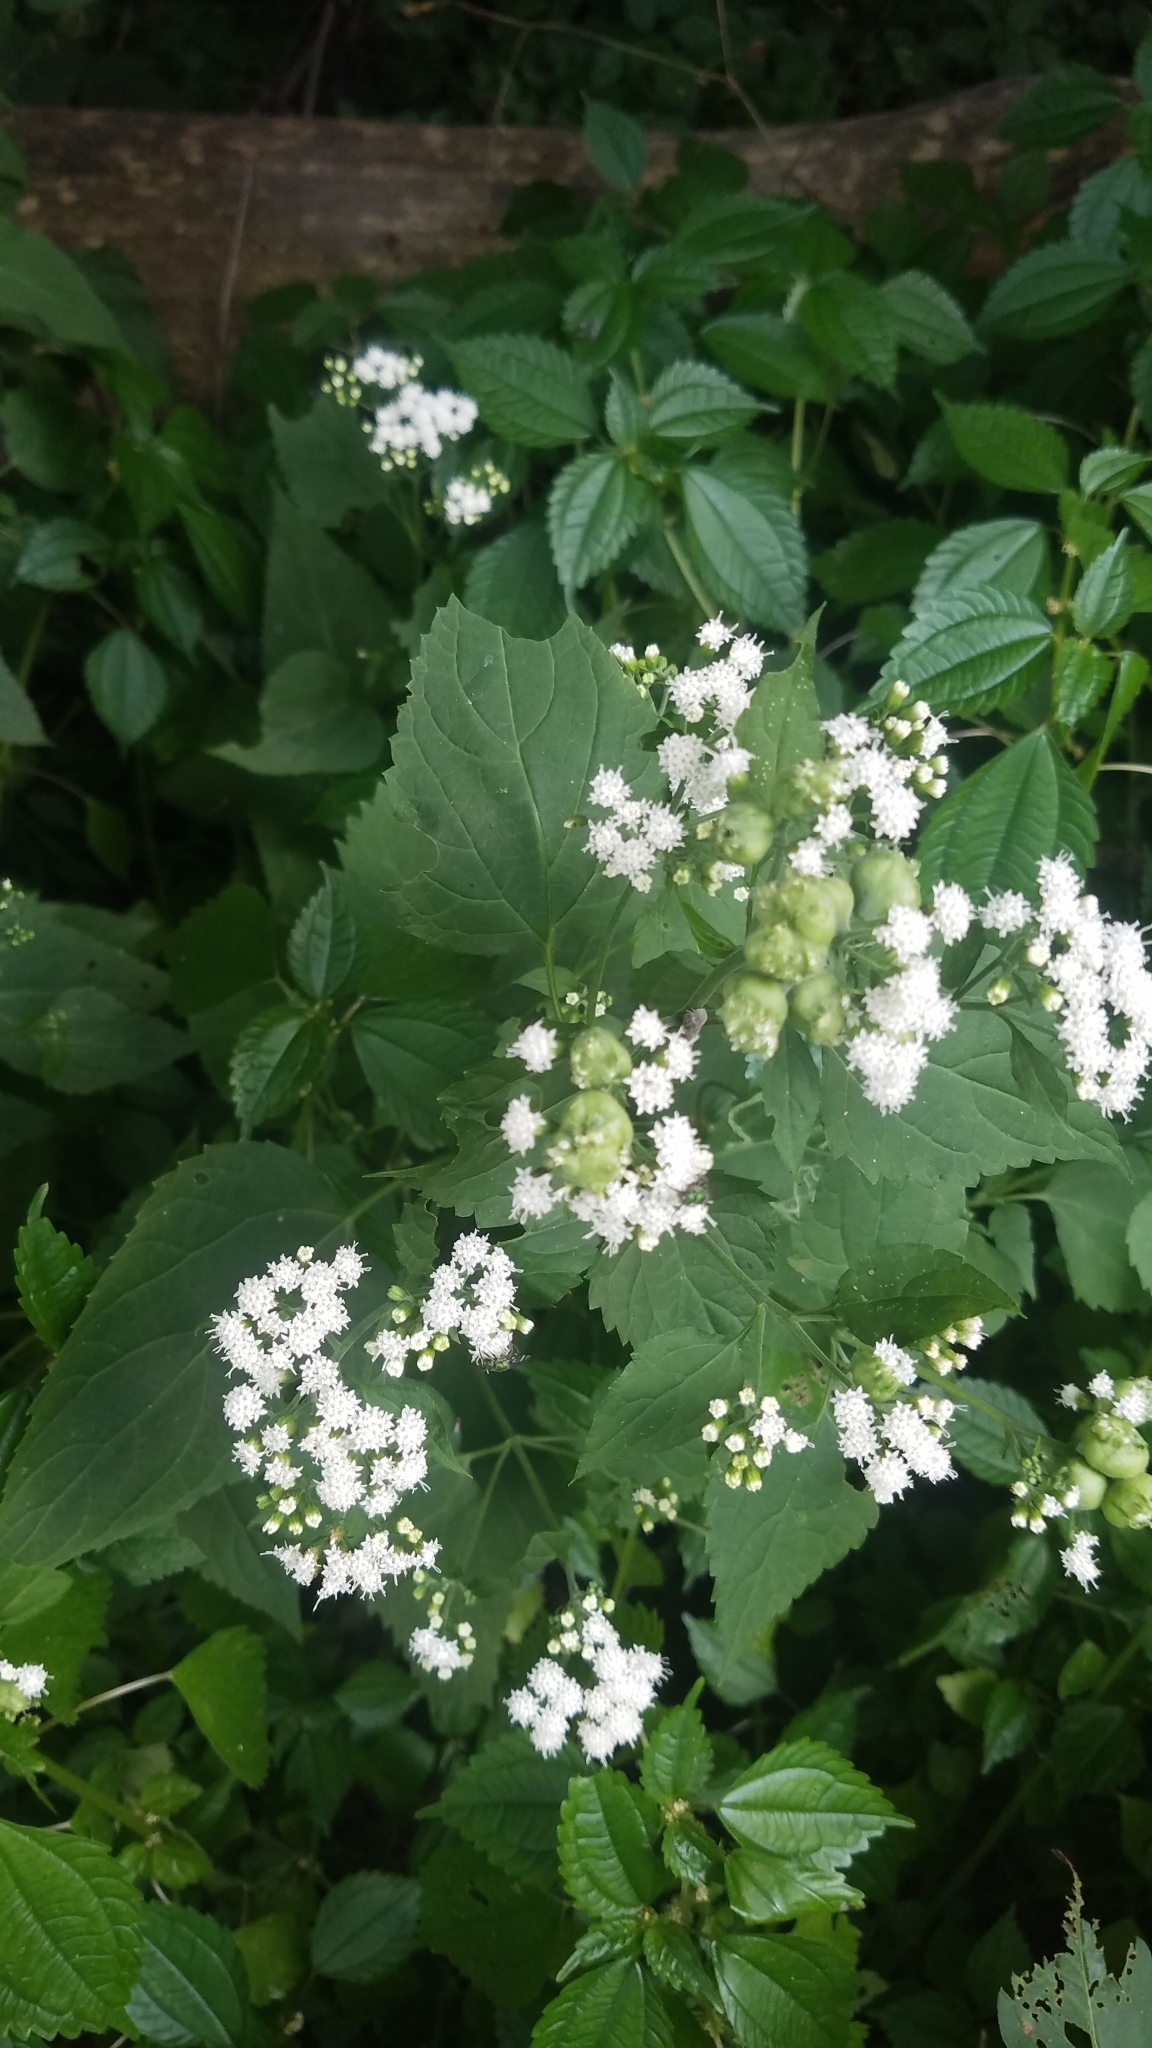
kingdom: Plantae
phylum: Tracheophyta
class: Magnoliopsida
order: Asterales
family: Asteraceae
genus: Ageratina
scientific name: Ageratina altissima
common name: White snakeroot
